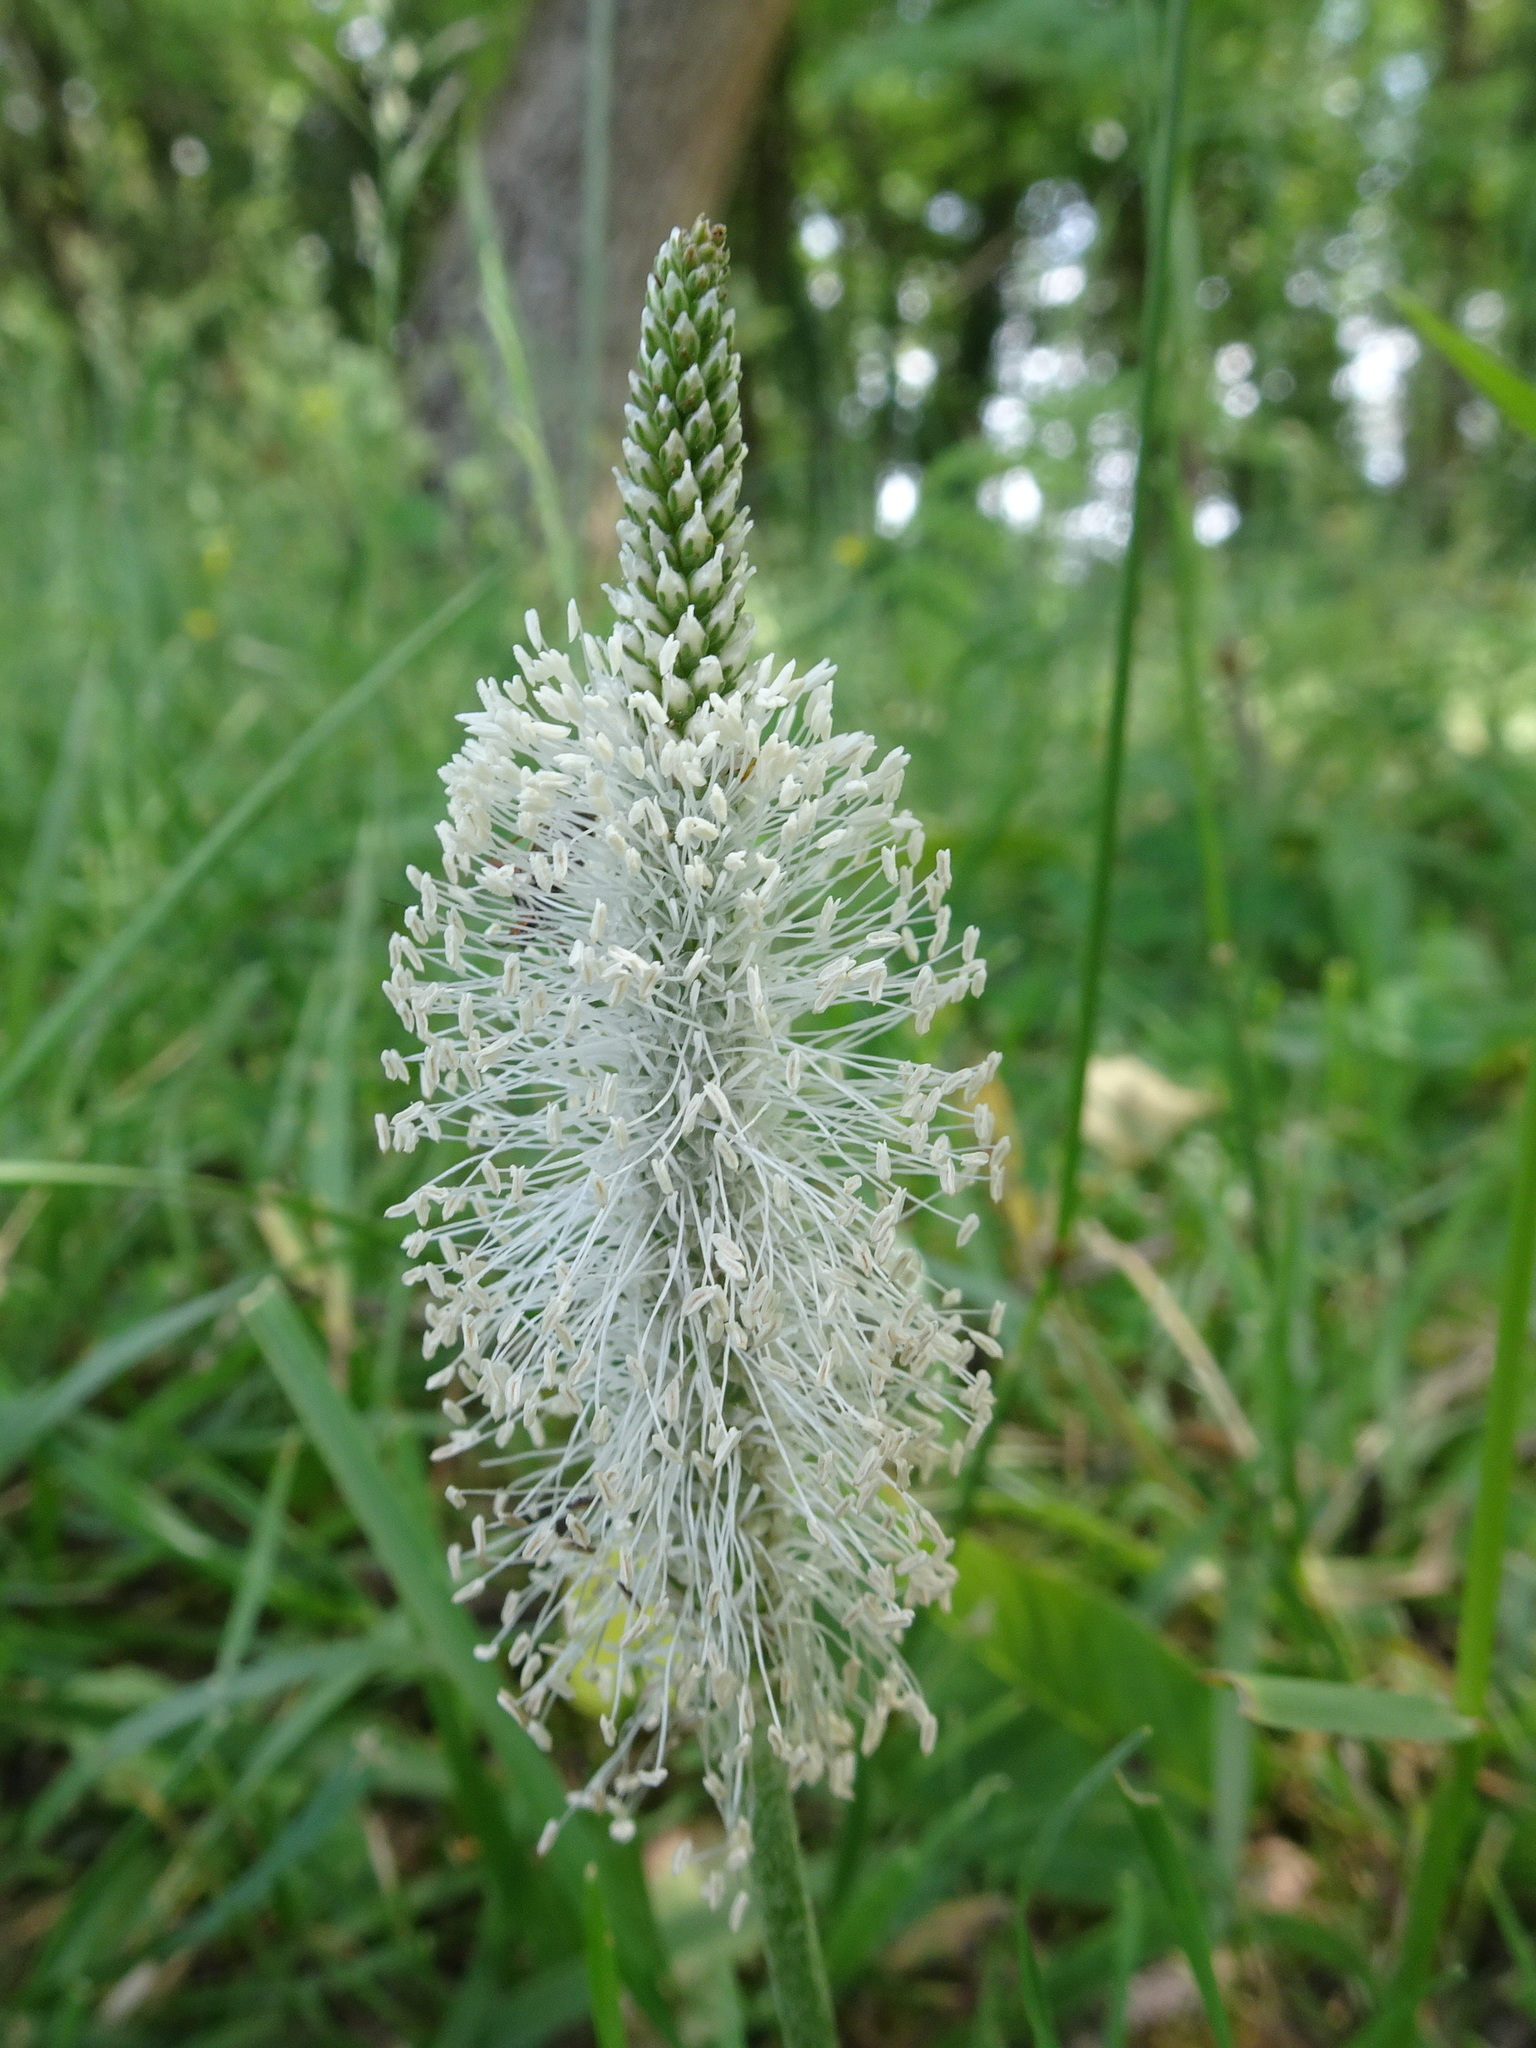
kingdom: Plantae
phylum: Tracheophyta
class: Magnoliopsida
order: Lamiales
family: Plantaginaceae
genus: Plantago
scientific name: Plantago media
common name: Hoary plantain
